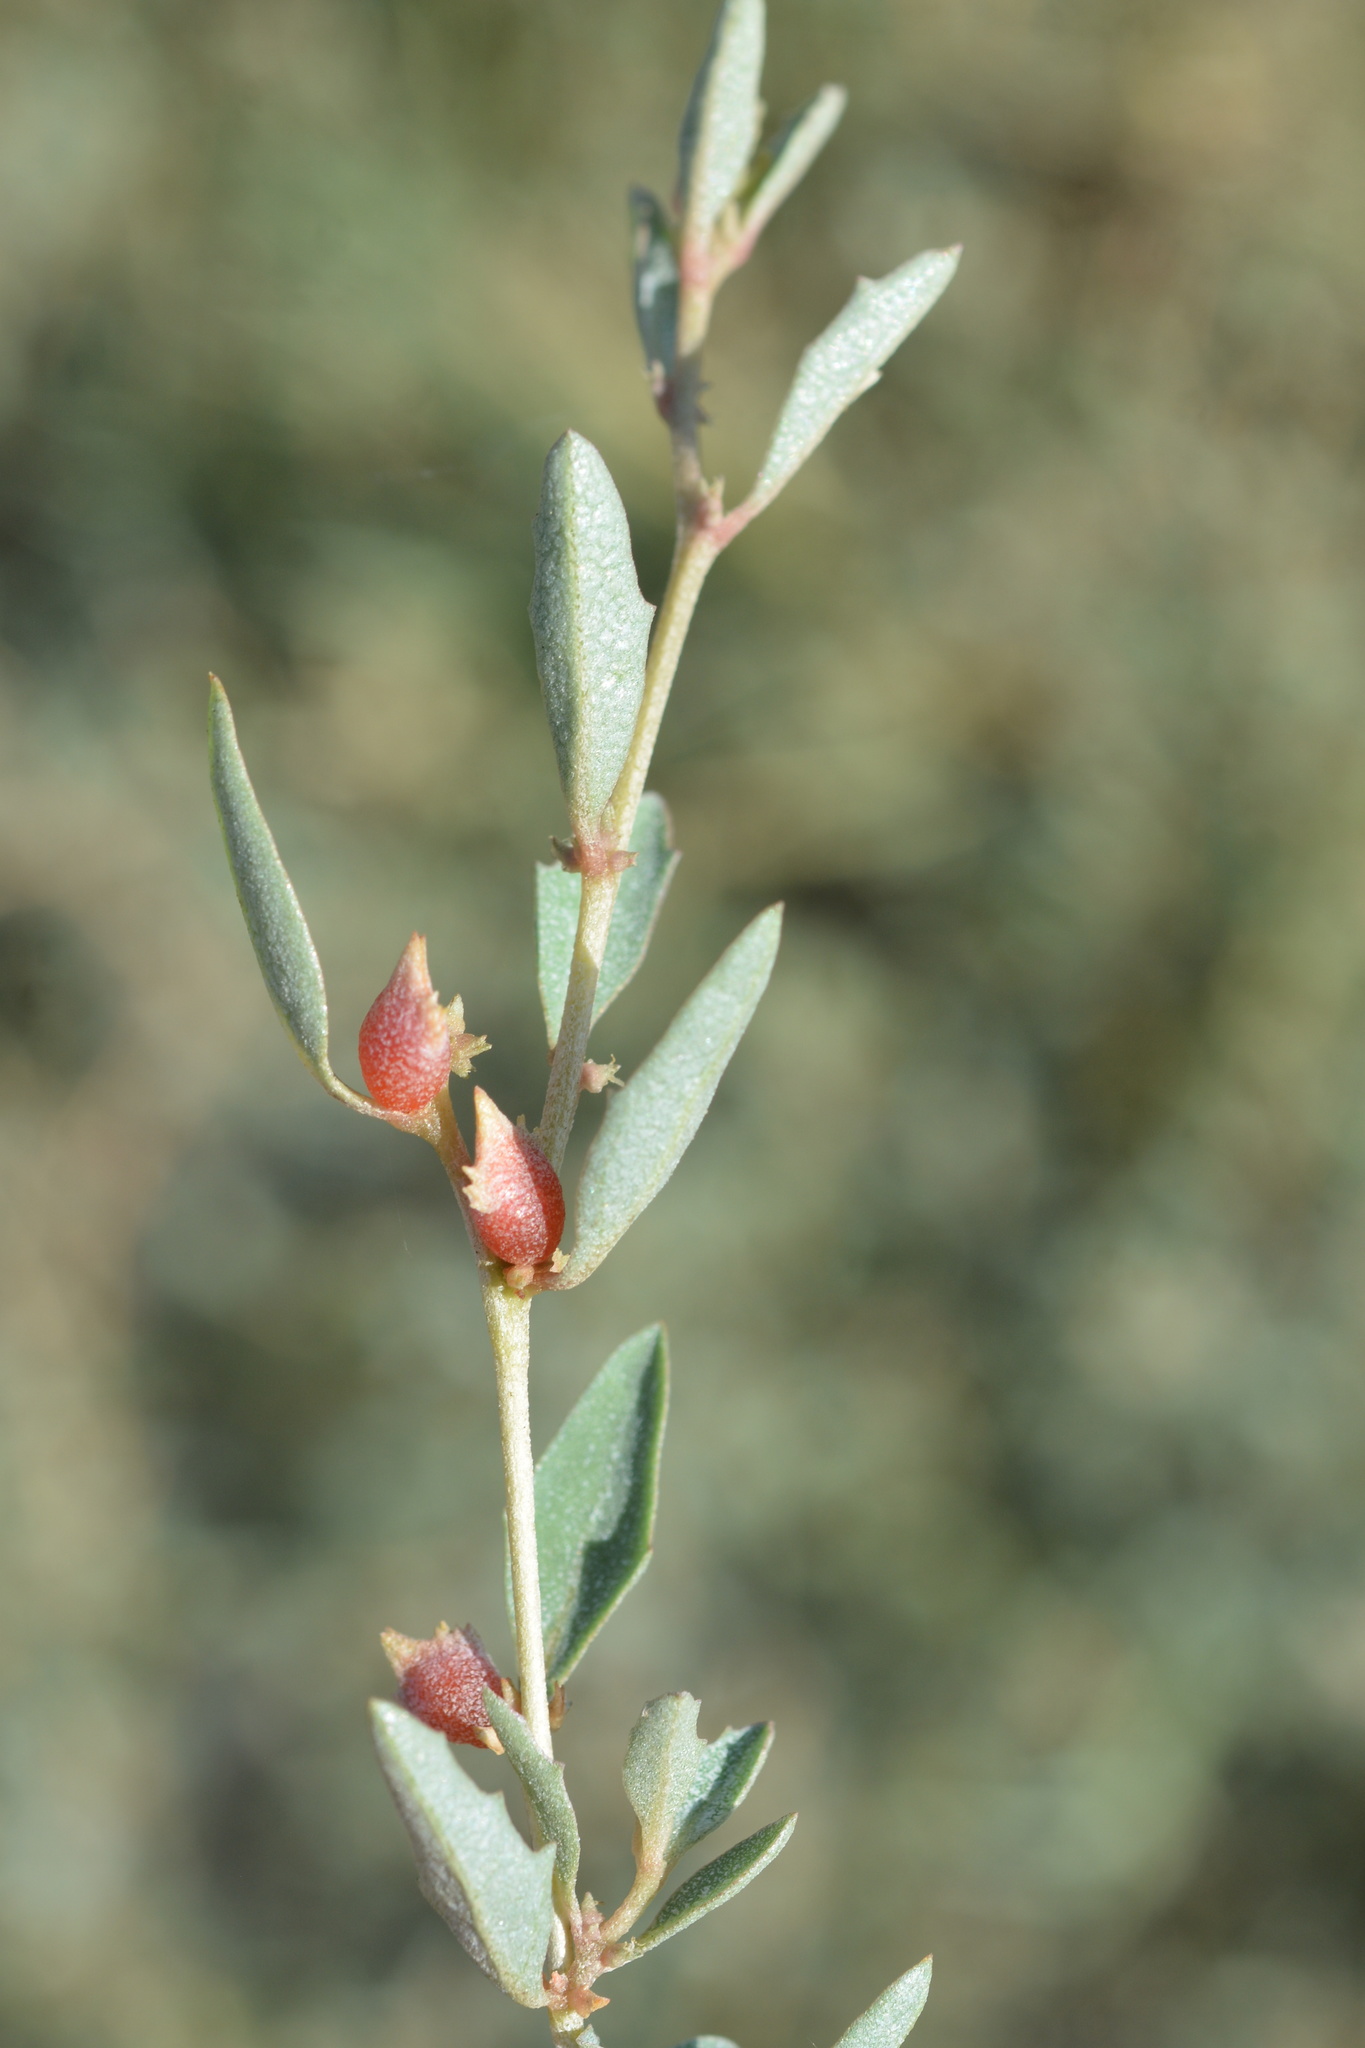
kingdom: Plantae
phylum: Tracheophyta
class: Magnoliopsida
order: Caryophyllales
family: Amaranthaceae
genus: Atriplex
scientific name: Atriplex semibaccata
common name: Australian saltbush
